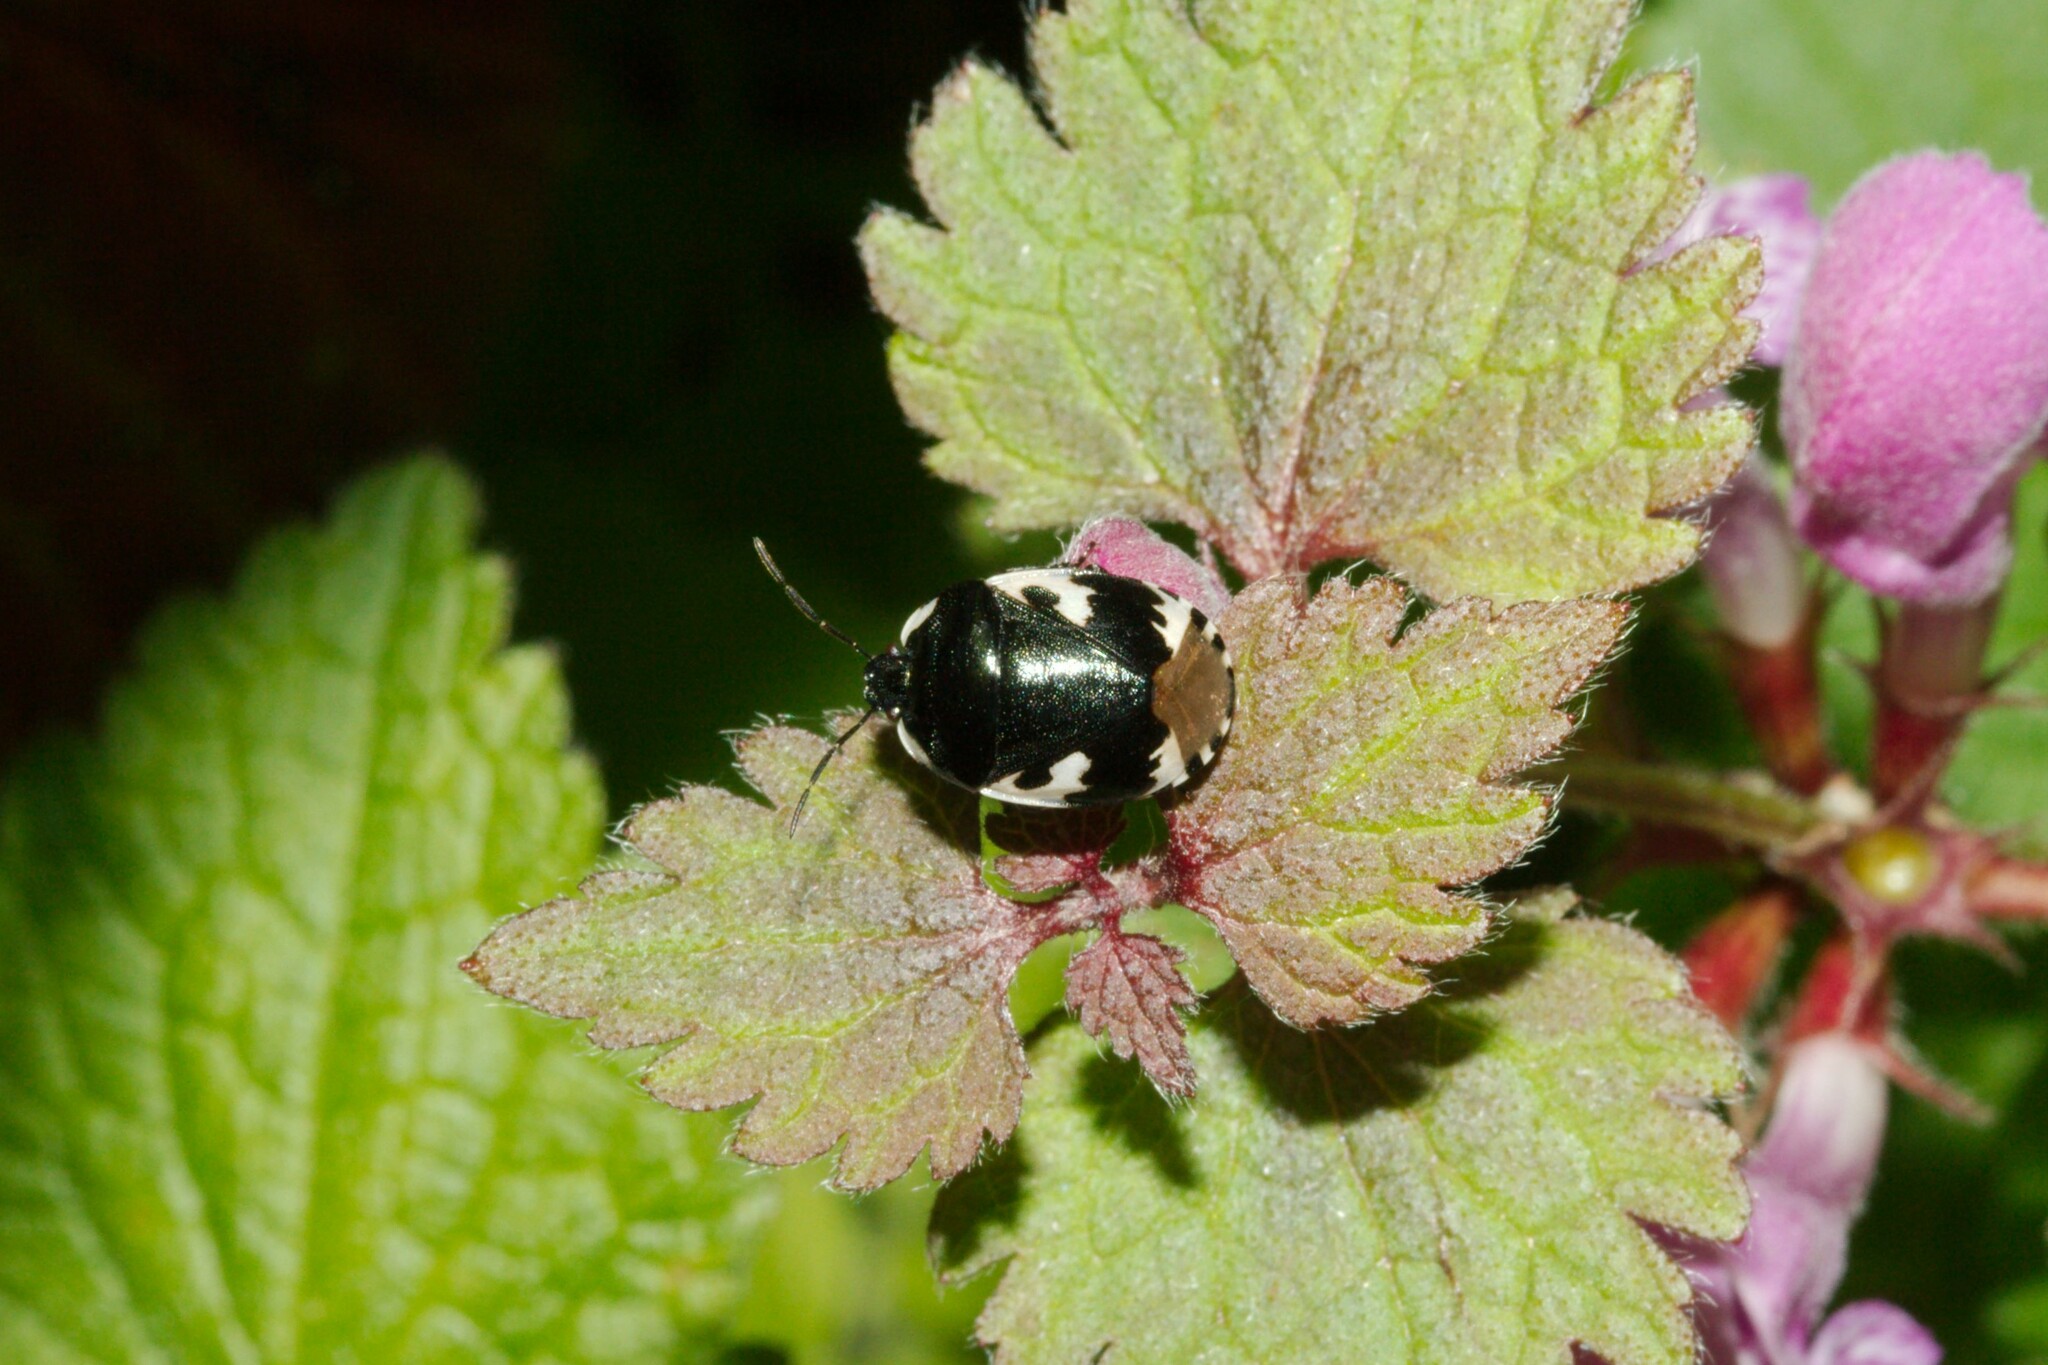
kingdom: Animalia
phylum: Arthropoda
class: Insecta
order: Hemiptera
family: Cydnidae
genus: Tritomegas
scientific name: Tritomegas bicolor
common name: Pied shieldbug
